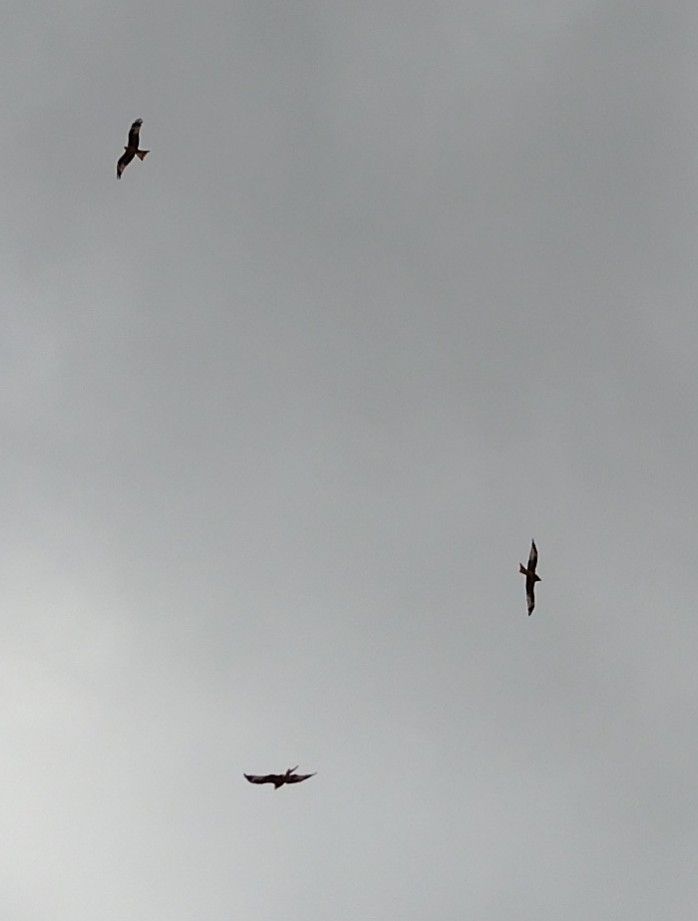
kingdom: Animalia
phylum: Chordata
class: Aves
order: Accipitriformes
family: Accipitridae
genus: Milvus
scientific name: Milvus milvus
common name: Red kite
